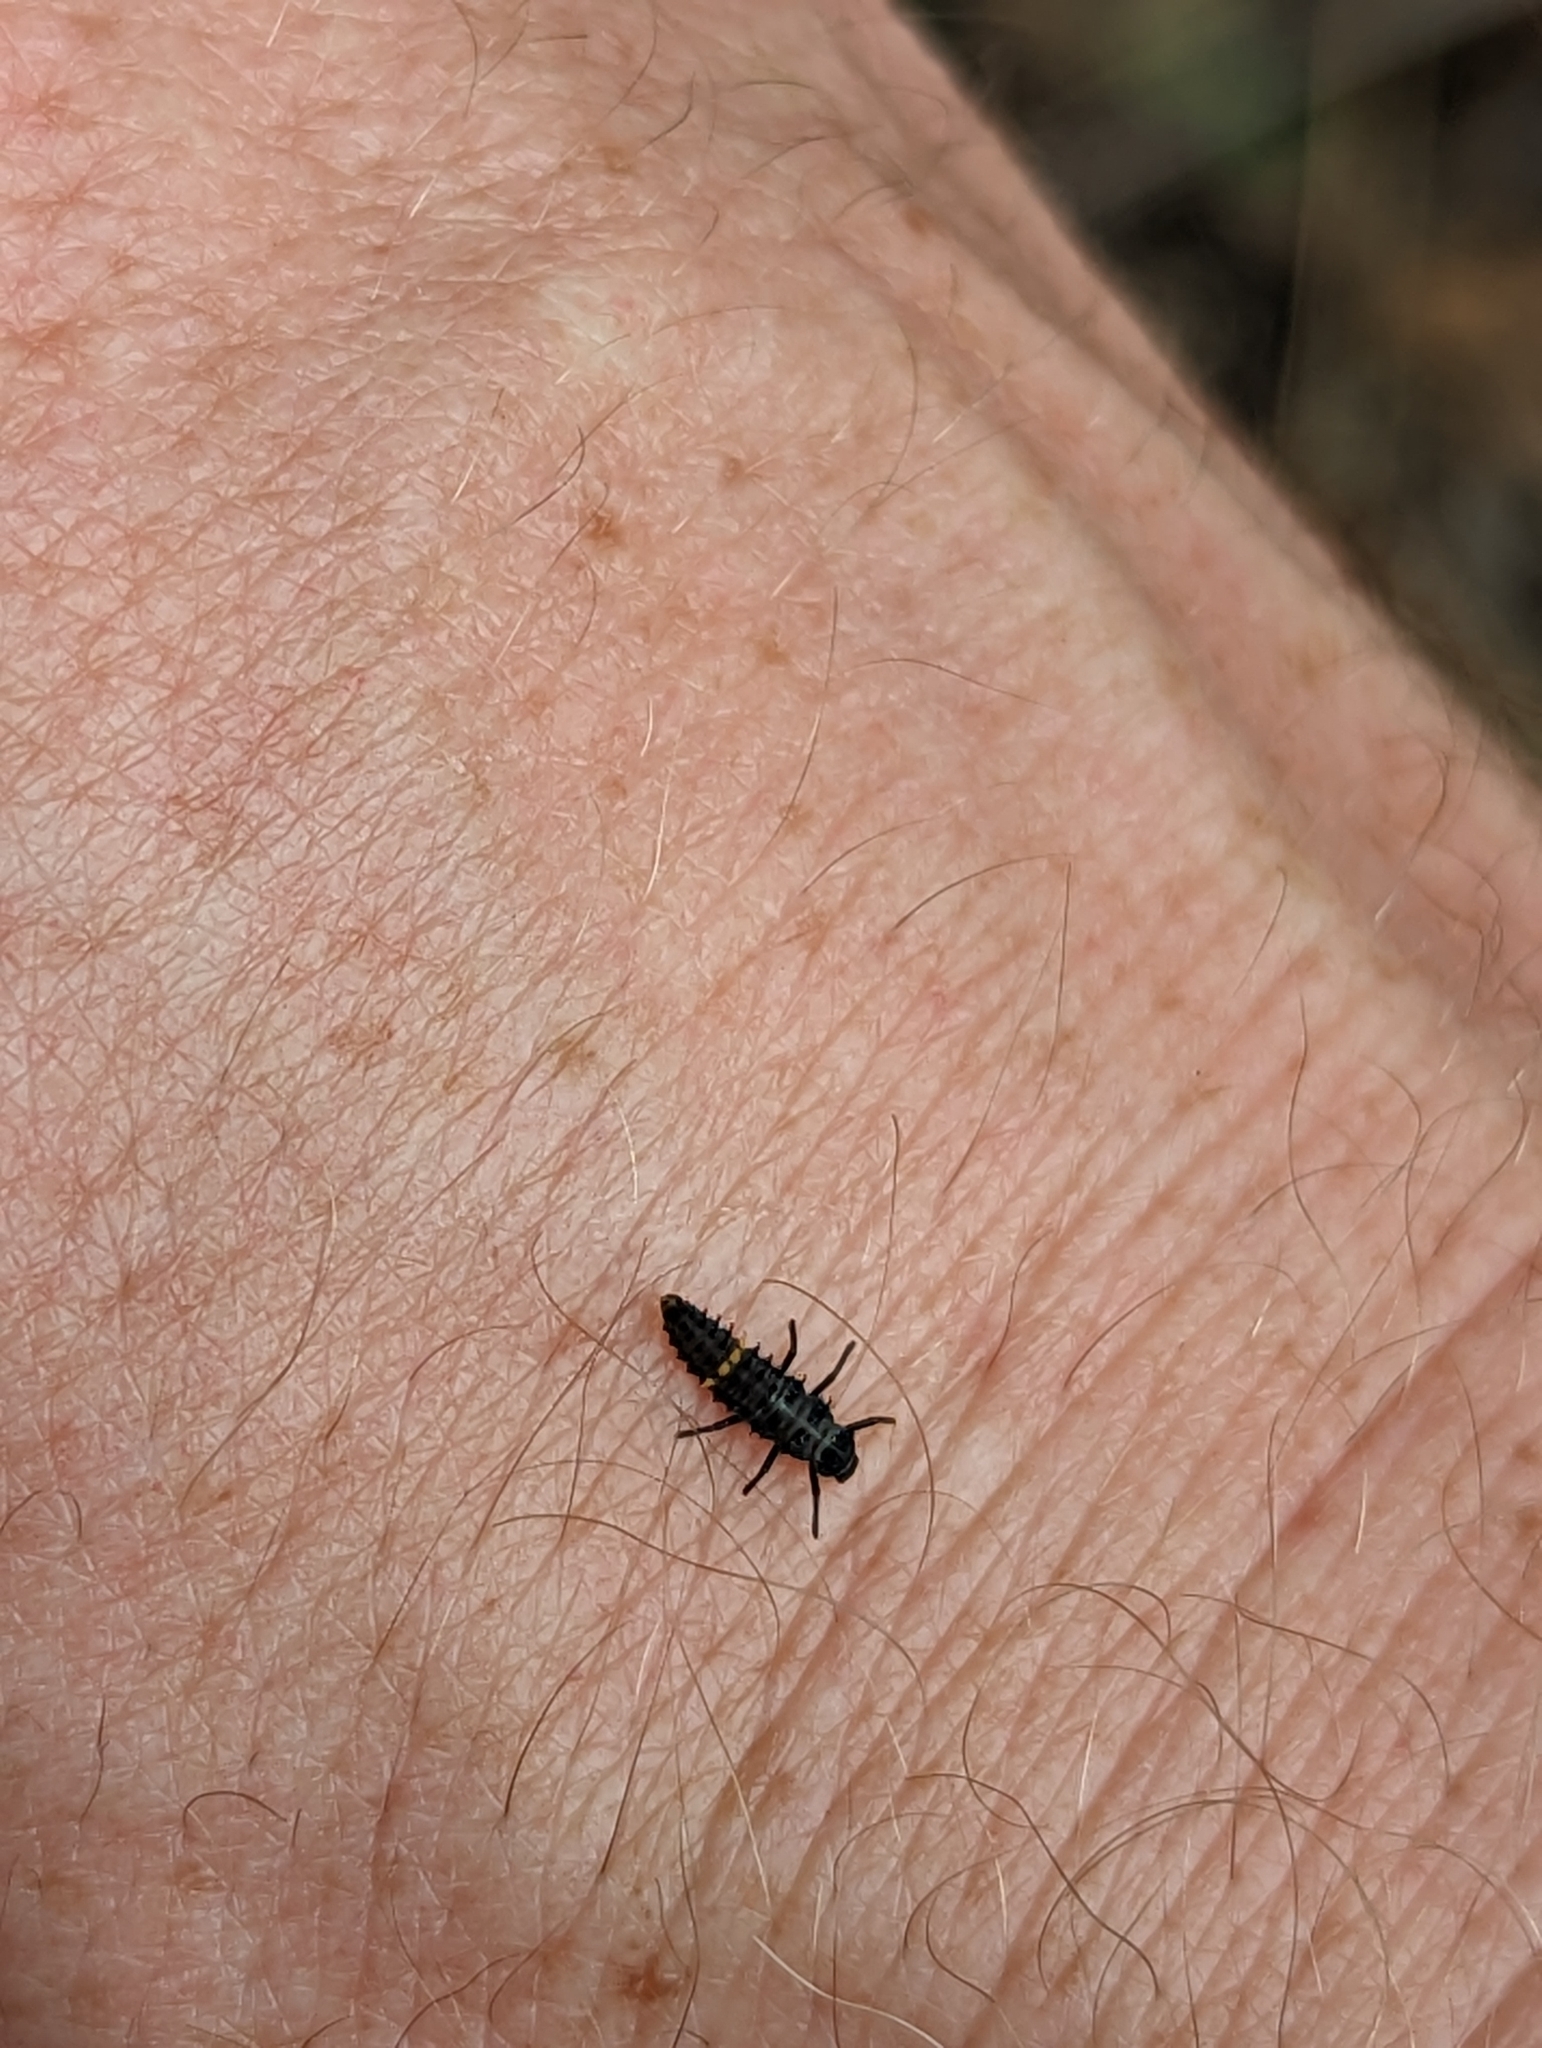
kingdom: Animalia
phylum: Arthropoda
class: Insecta
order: Coleoptera
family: Coccinellidae
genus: Harmonia
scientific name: Harmonia conformis
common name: Common spotted ladybird beetle
